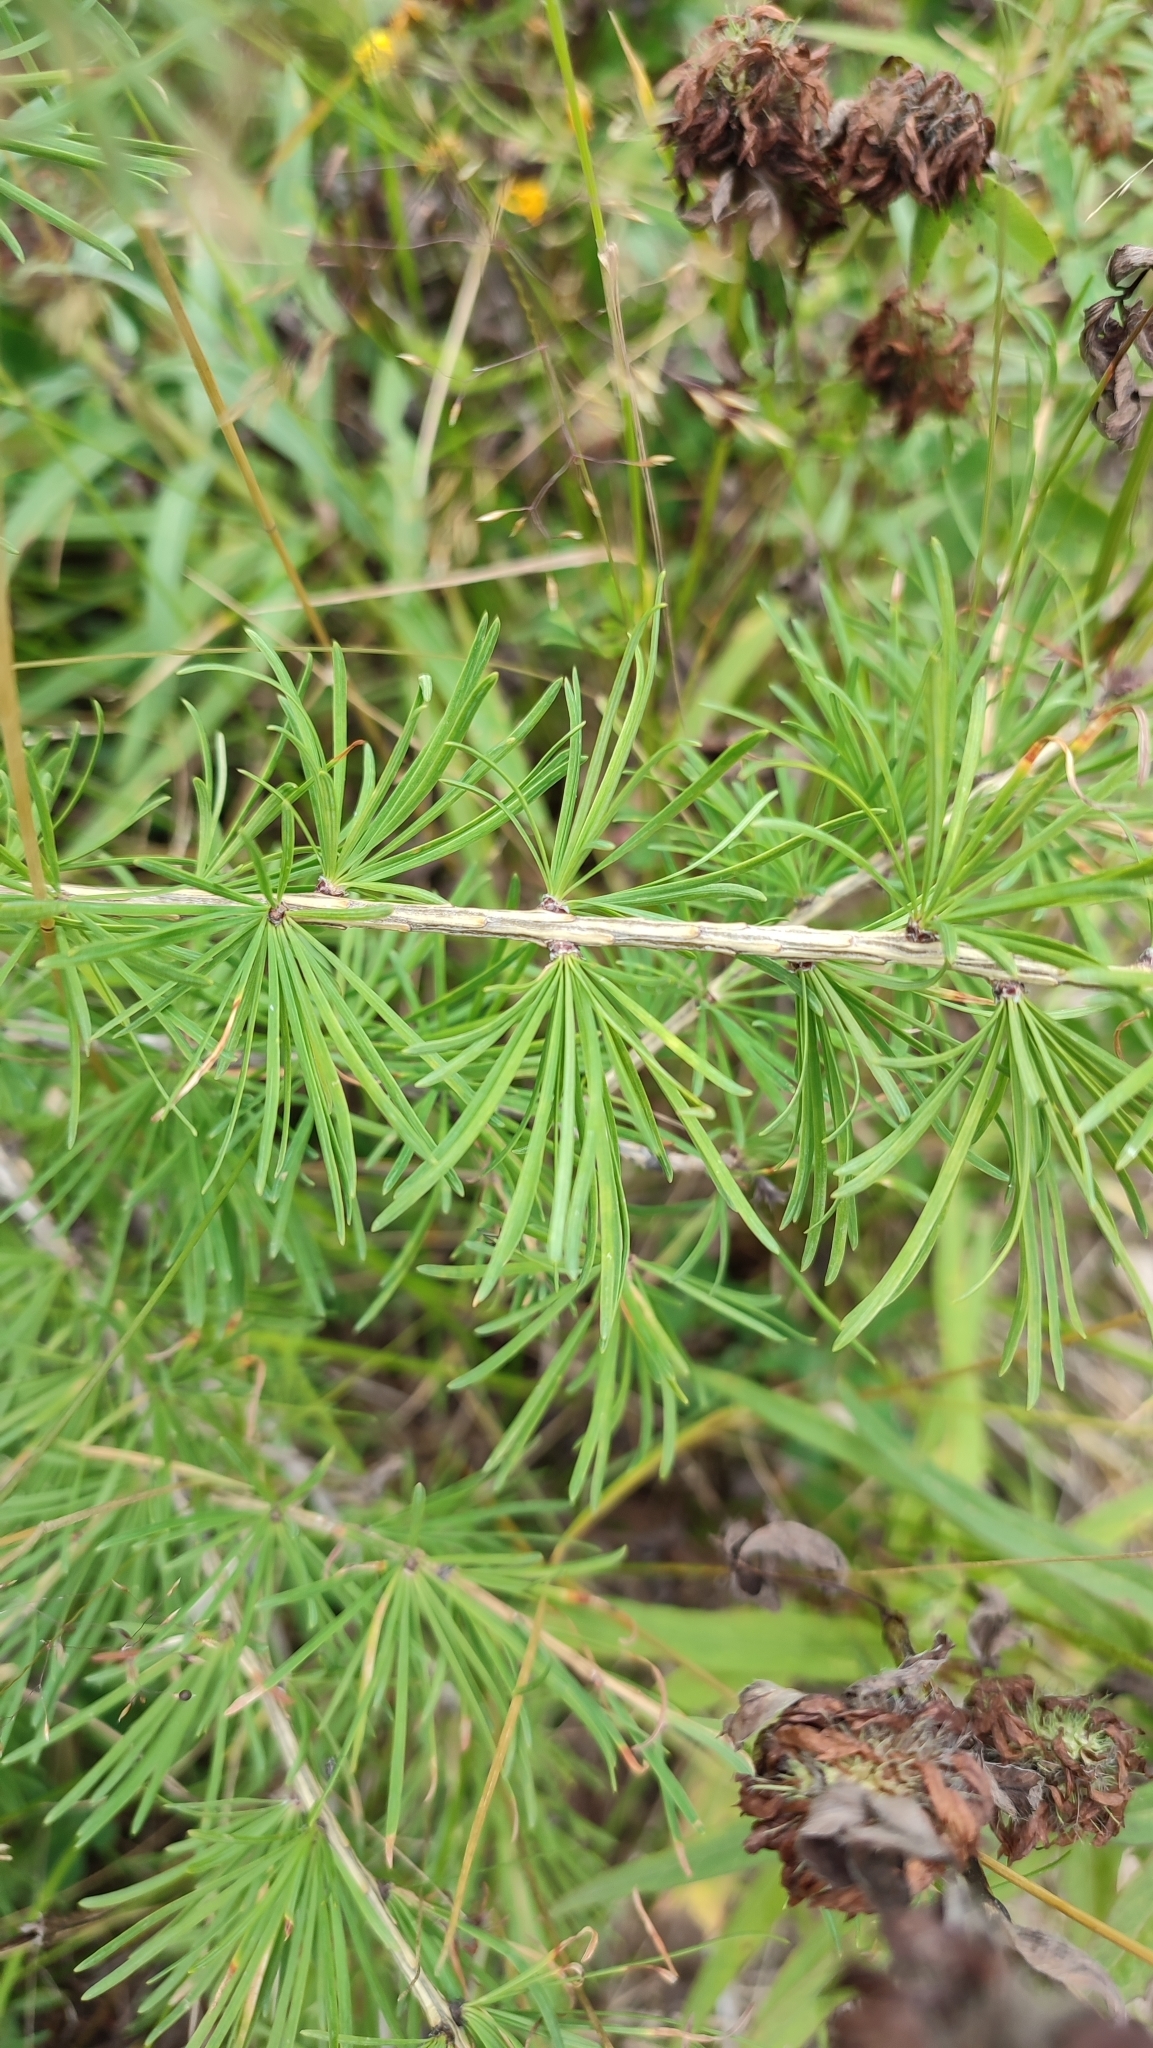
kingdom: Plantae
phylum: Tracheophyta
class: Pinopsida
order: Pinales
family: Pinaceae
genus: Larix
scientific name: Larix sibirica
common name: Siberian larch
